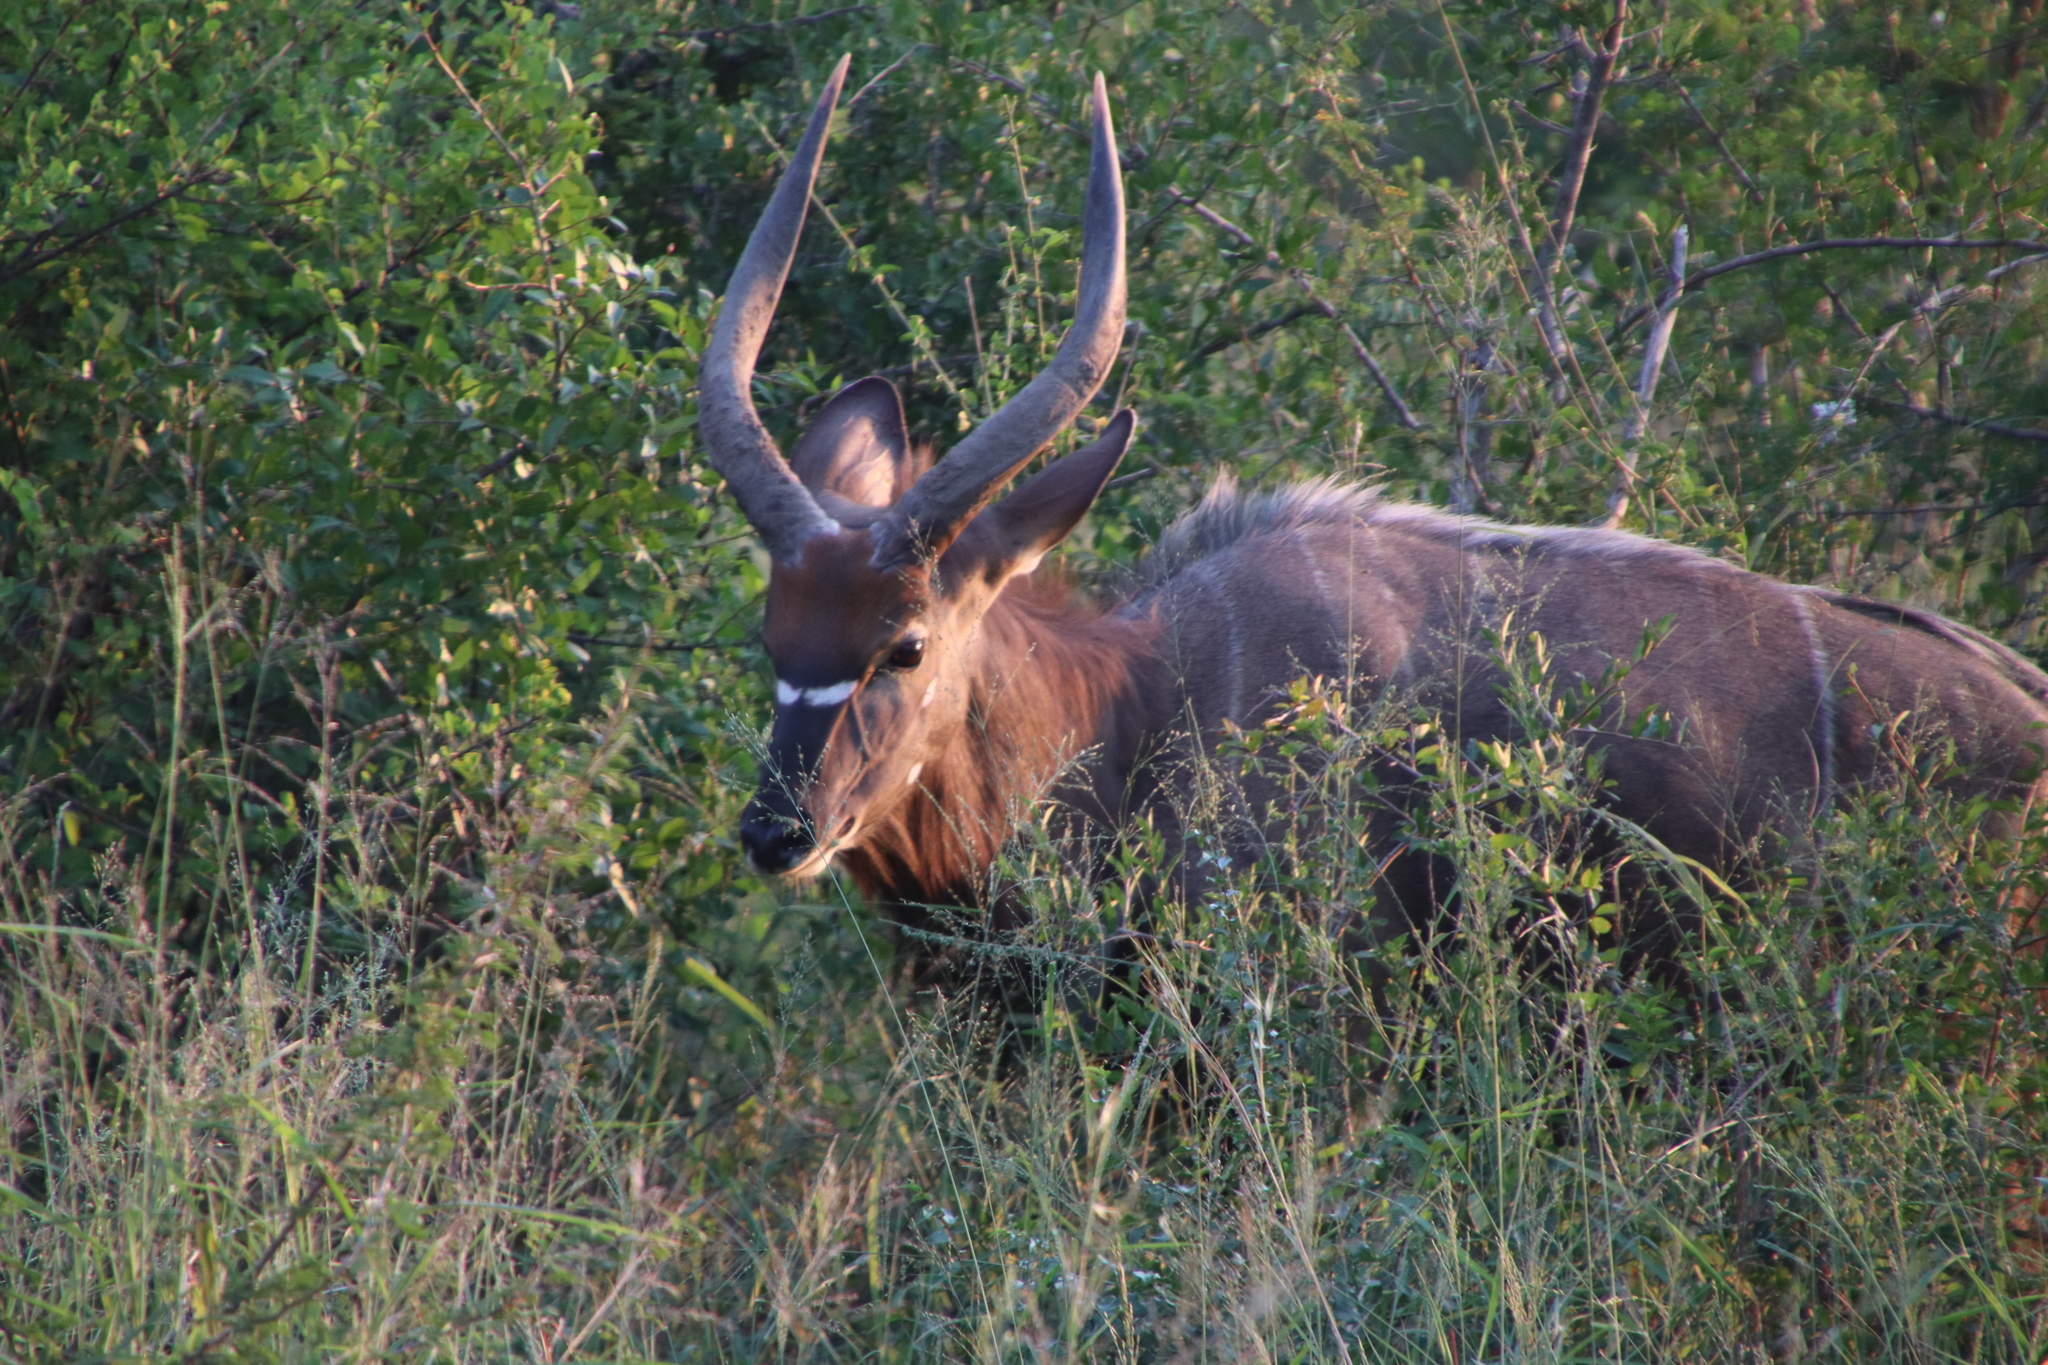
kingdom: Animalia
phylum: Chordata
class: Mammalia
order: Artiodactyla
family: Bovidae
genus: Tragelaphus
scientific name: Tragelaphus angasii
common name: Nyala
